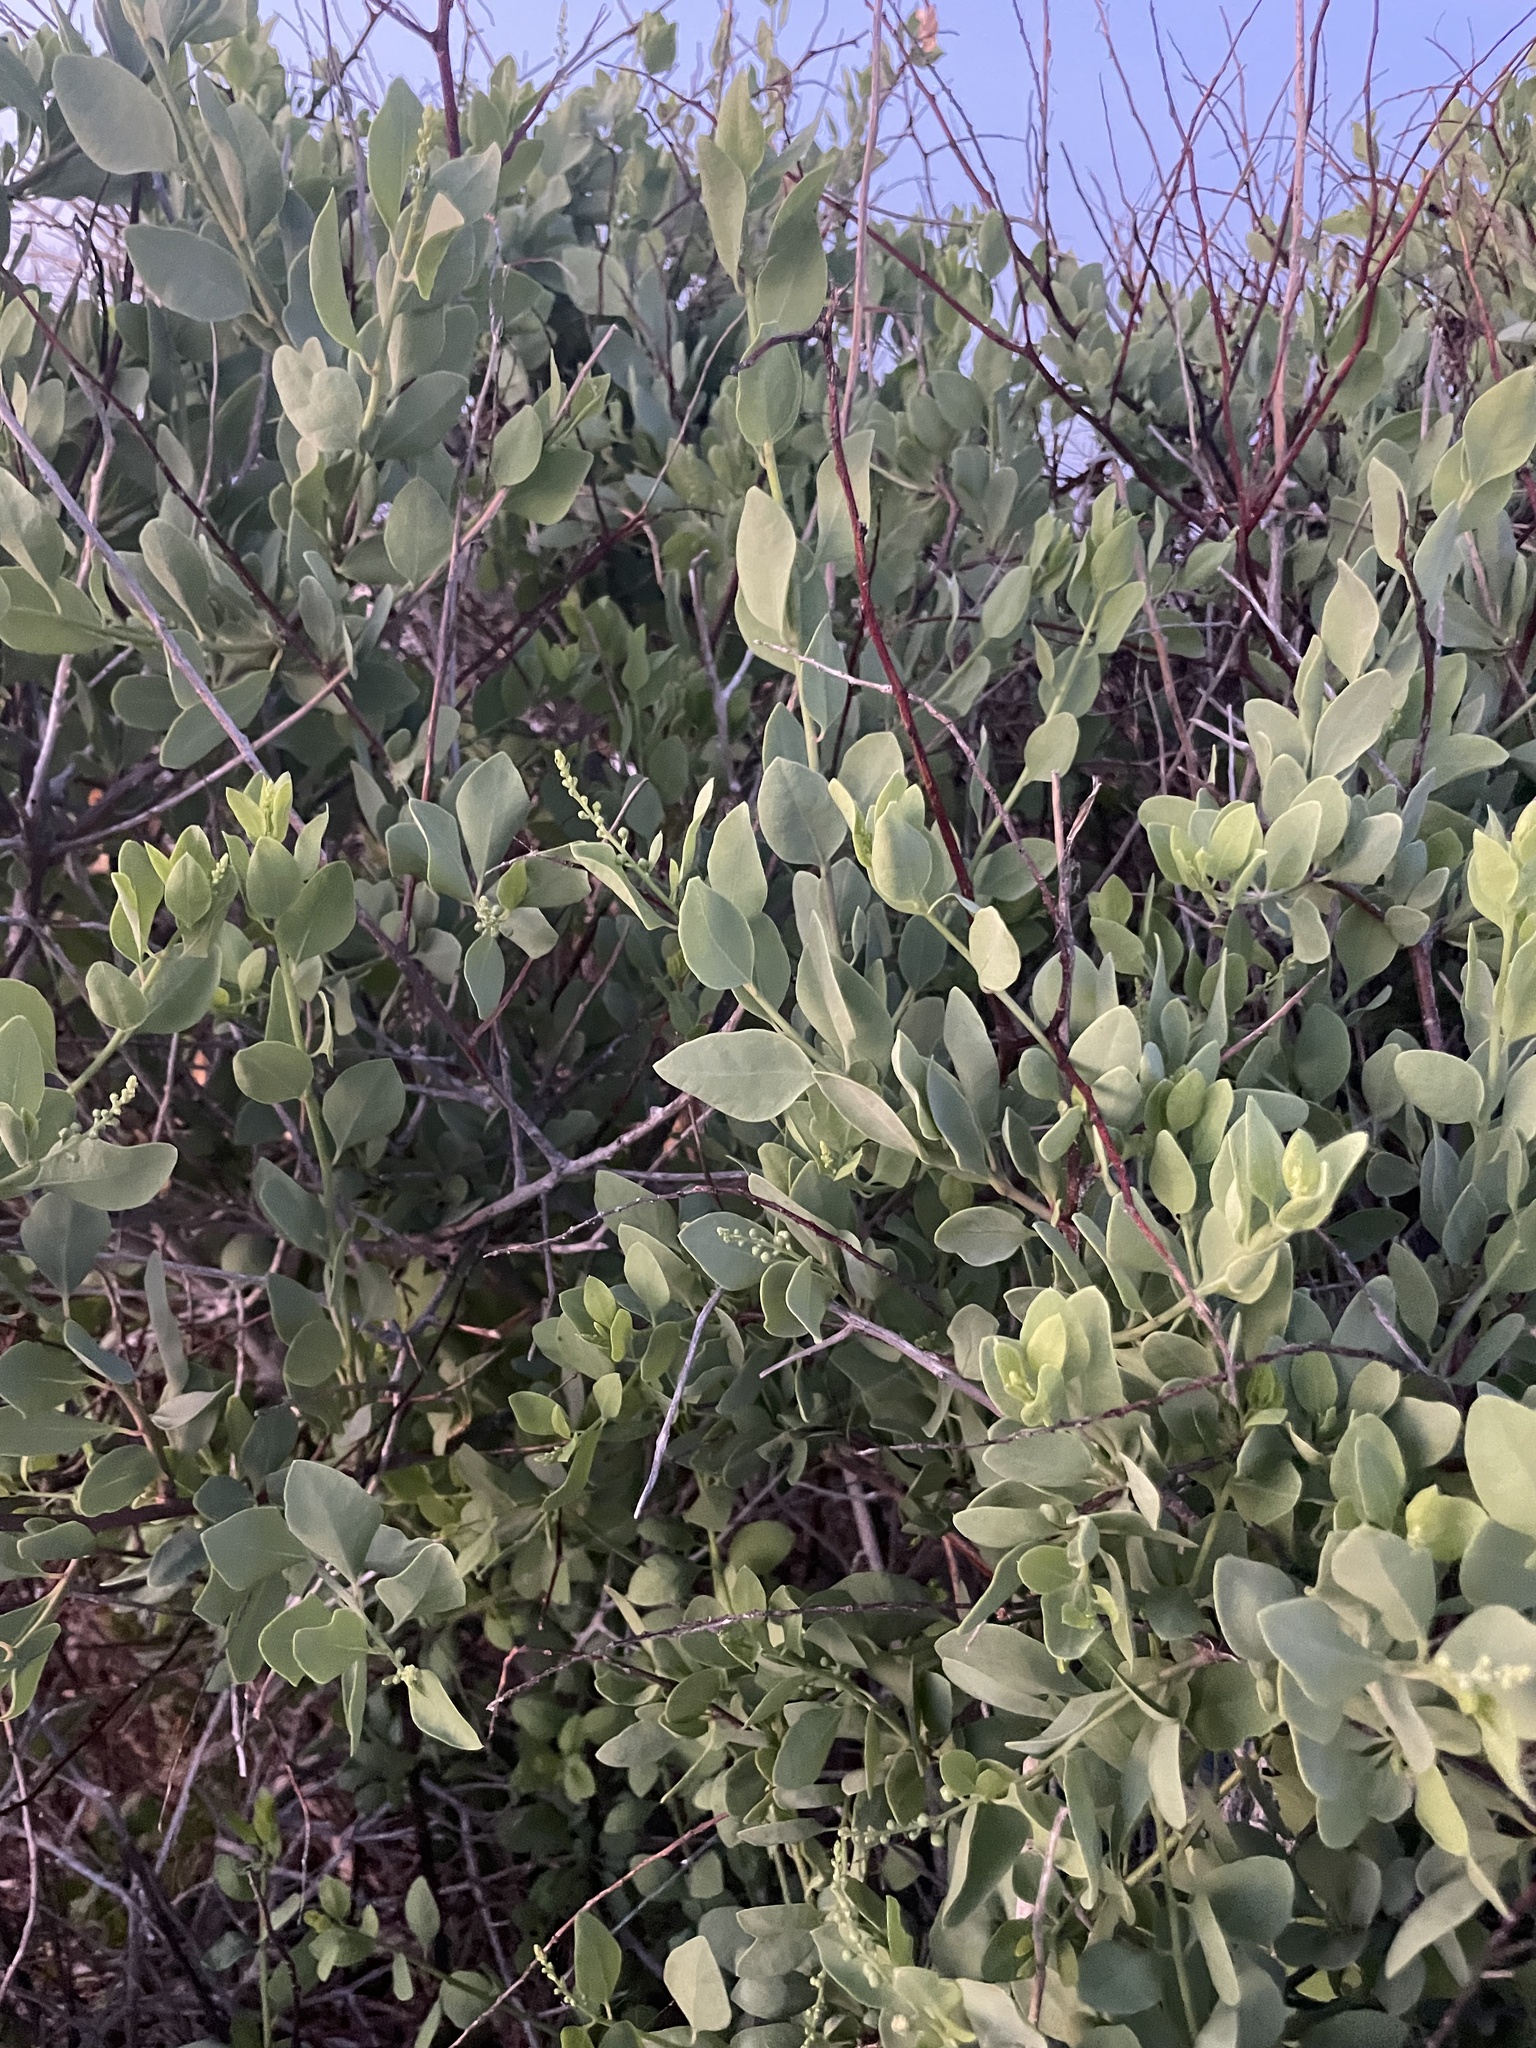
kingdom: Plantae
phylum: Tracheophyta
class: Magnoliopsida
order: Caryophyllales
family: Stegnospermataceae
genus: Stegnosperma
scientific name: Stegnosperma halimifolium
